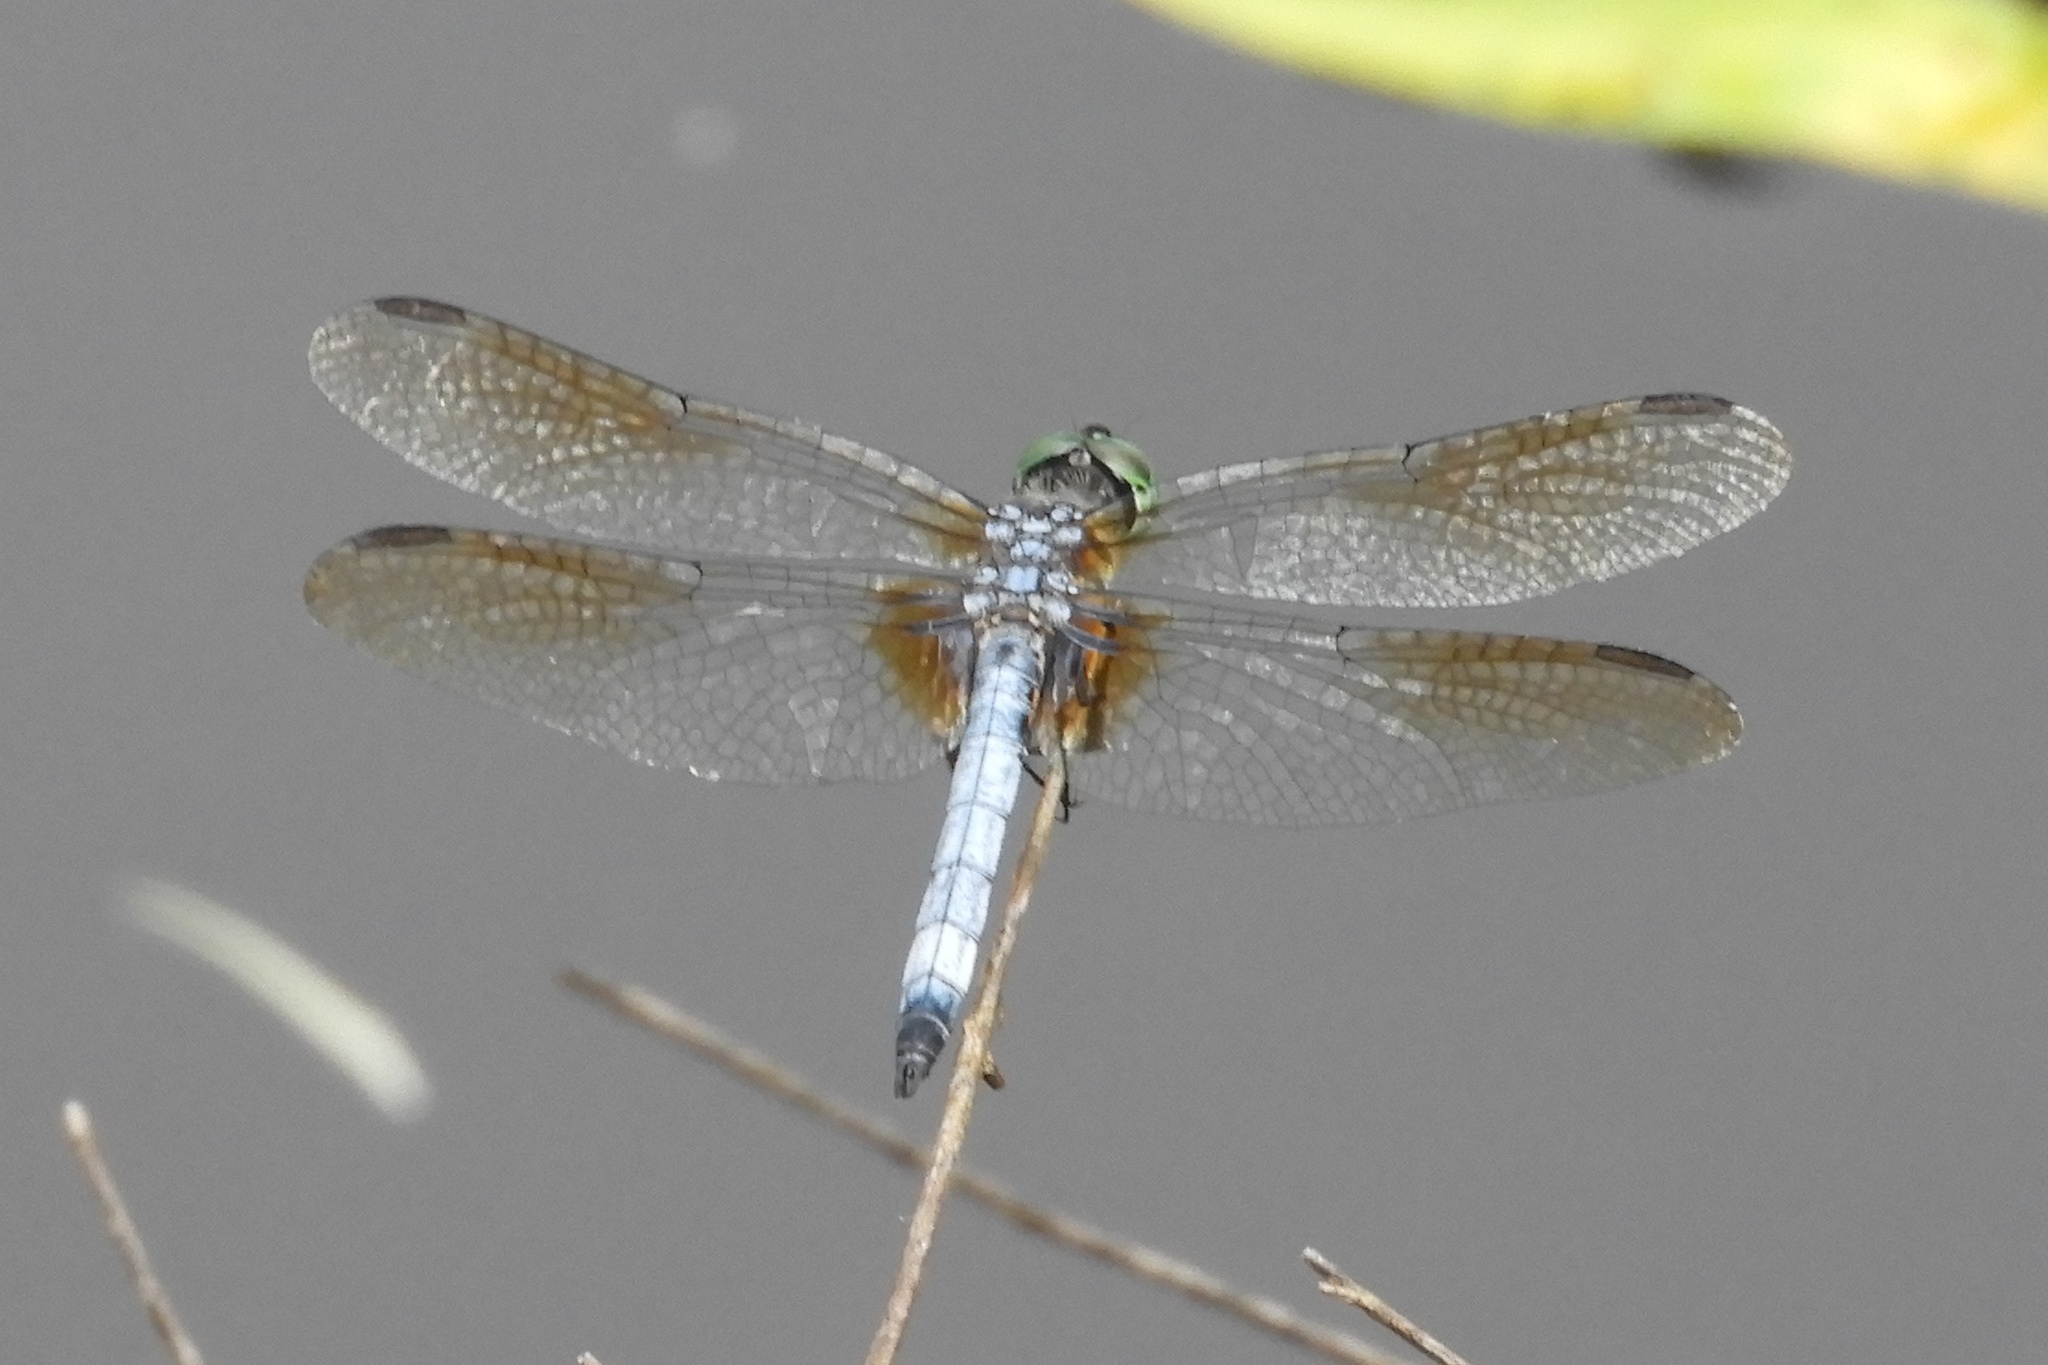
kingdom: Animalia
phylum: Arthropoda
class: Insecta
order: Odonata
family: Libellulidae
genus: Pachydiplax
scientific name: Pachydiplax longipennis
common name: Blue dasher
